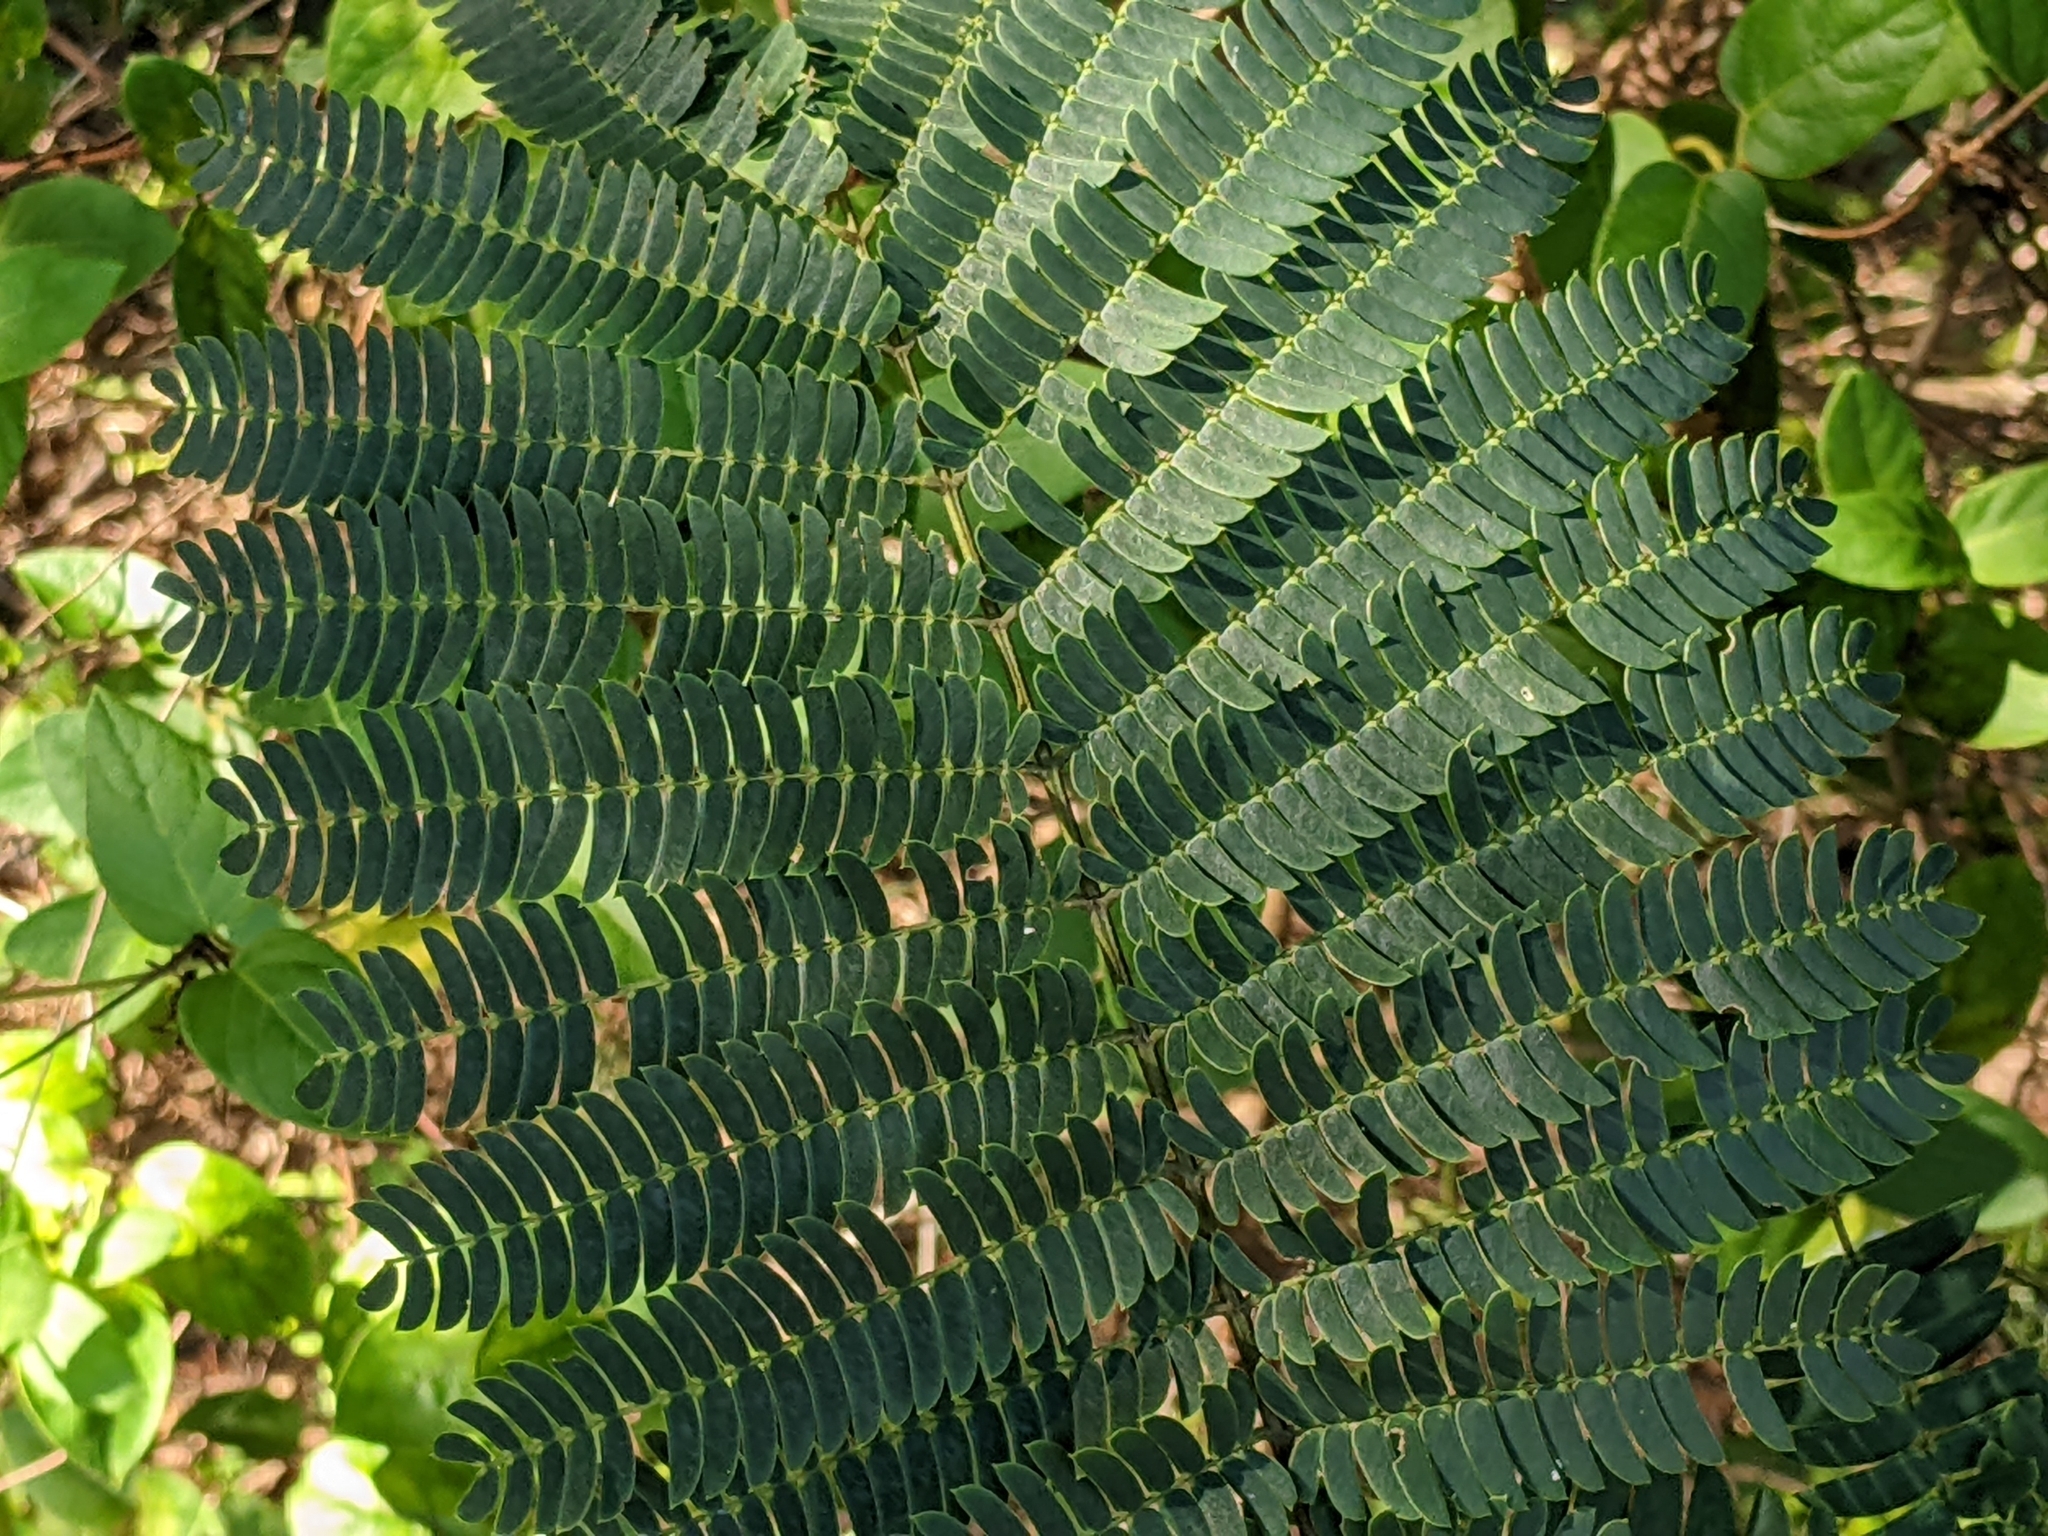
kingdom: Plantae
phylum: Tracheophyta
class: Magnoliopsida
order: Fabales
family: Fabaceae
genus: Albizia
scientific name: Albizia julibrissin
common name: Silktree
